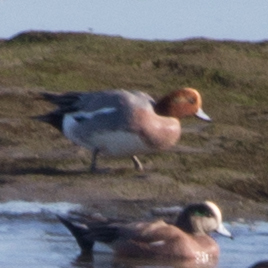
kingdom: Animalia
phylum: Chordata
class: Aves
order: Anseriformes
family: Anatidae
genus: Mareca
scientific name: Mareca penelope
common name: Eurasian wigeon
